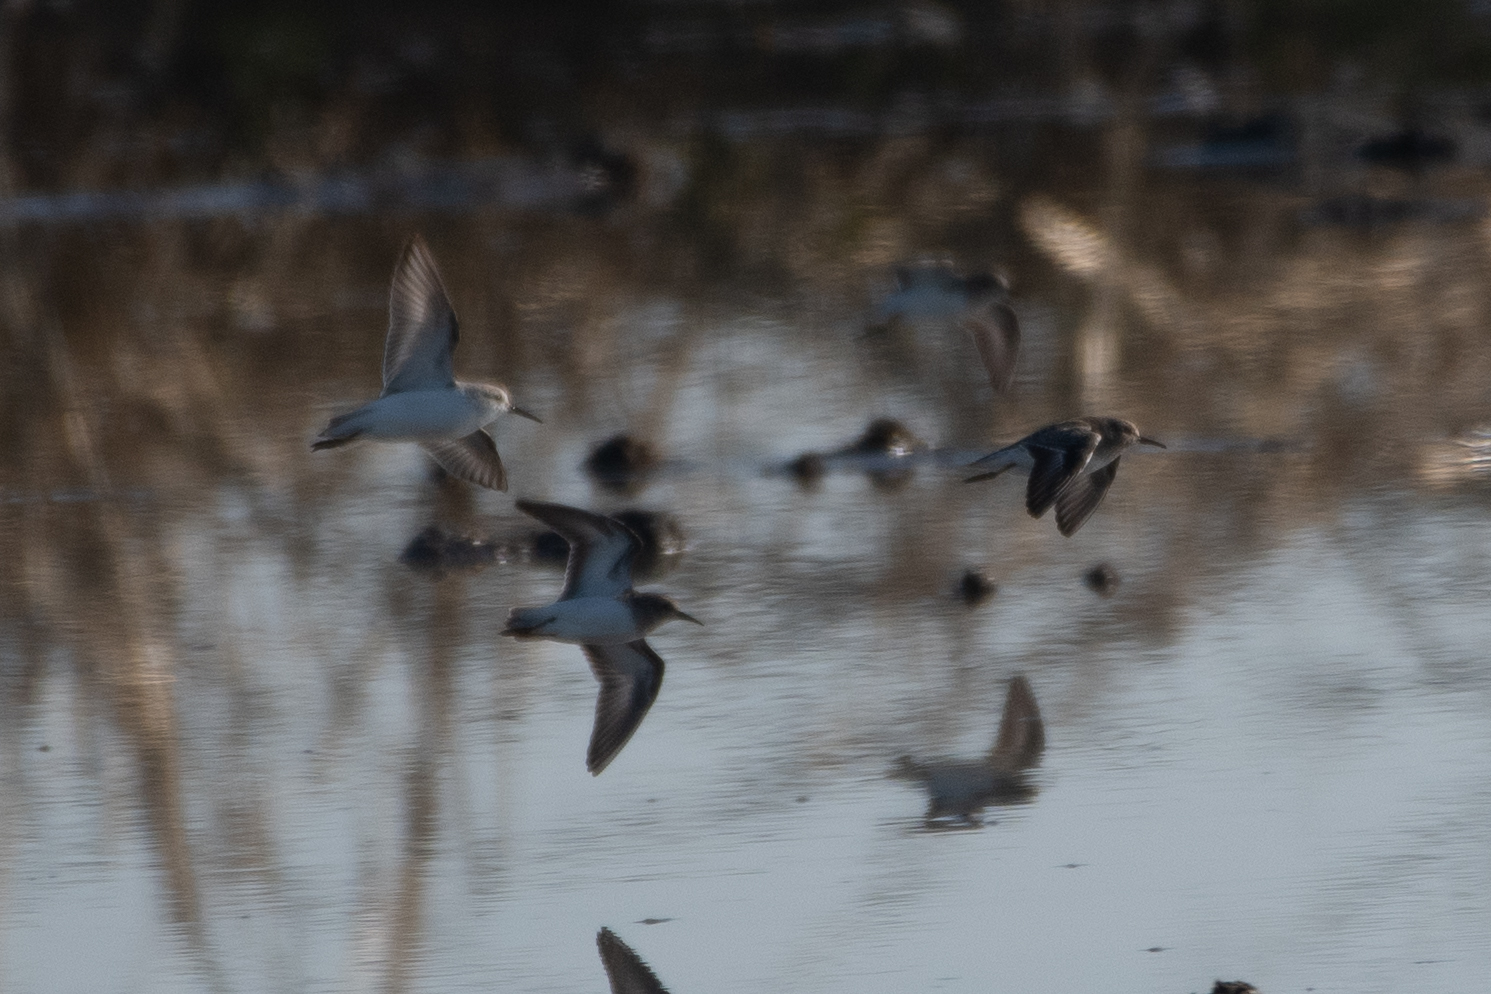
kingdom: Animalia
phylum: Chordata
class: Aves
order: Charadriiformes
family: Scolopacidae
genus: Calidris
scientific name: Calidris minutilla
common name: Least sandpiper
